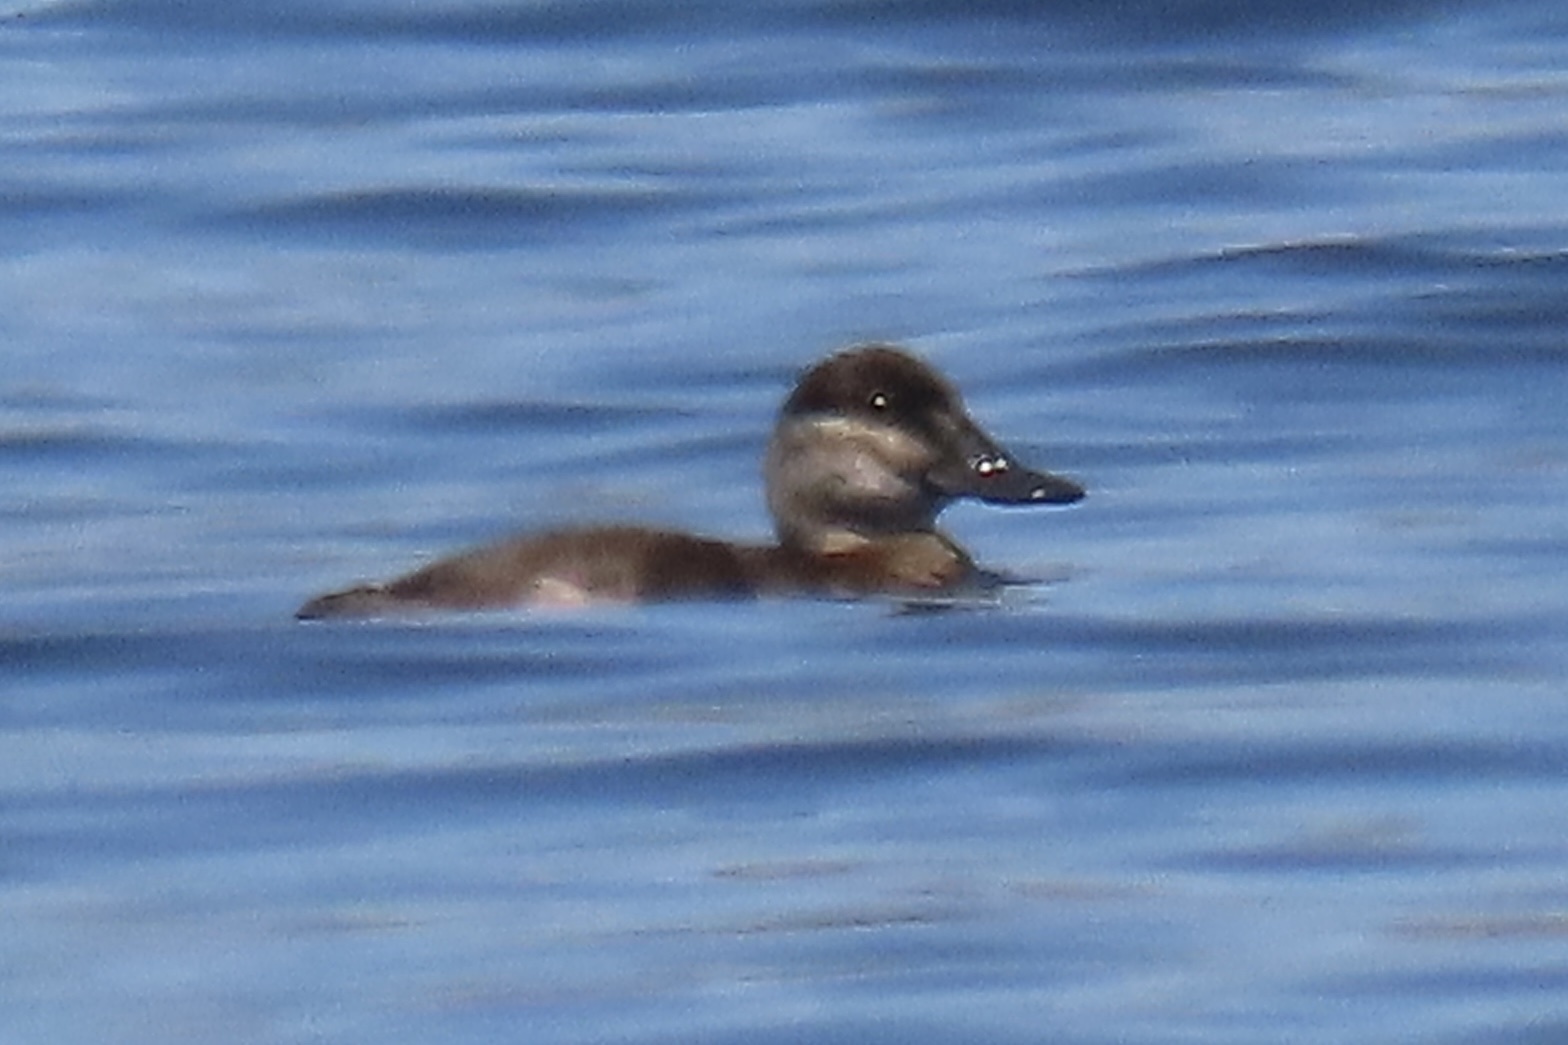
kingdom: Animalia
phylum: Chordata
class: Aves
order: Anseriformes
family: Anatidae
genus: Oxyura
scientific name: Oxyura jamaicensis
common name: Ruddy duck
